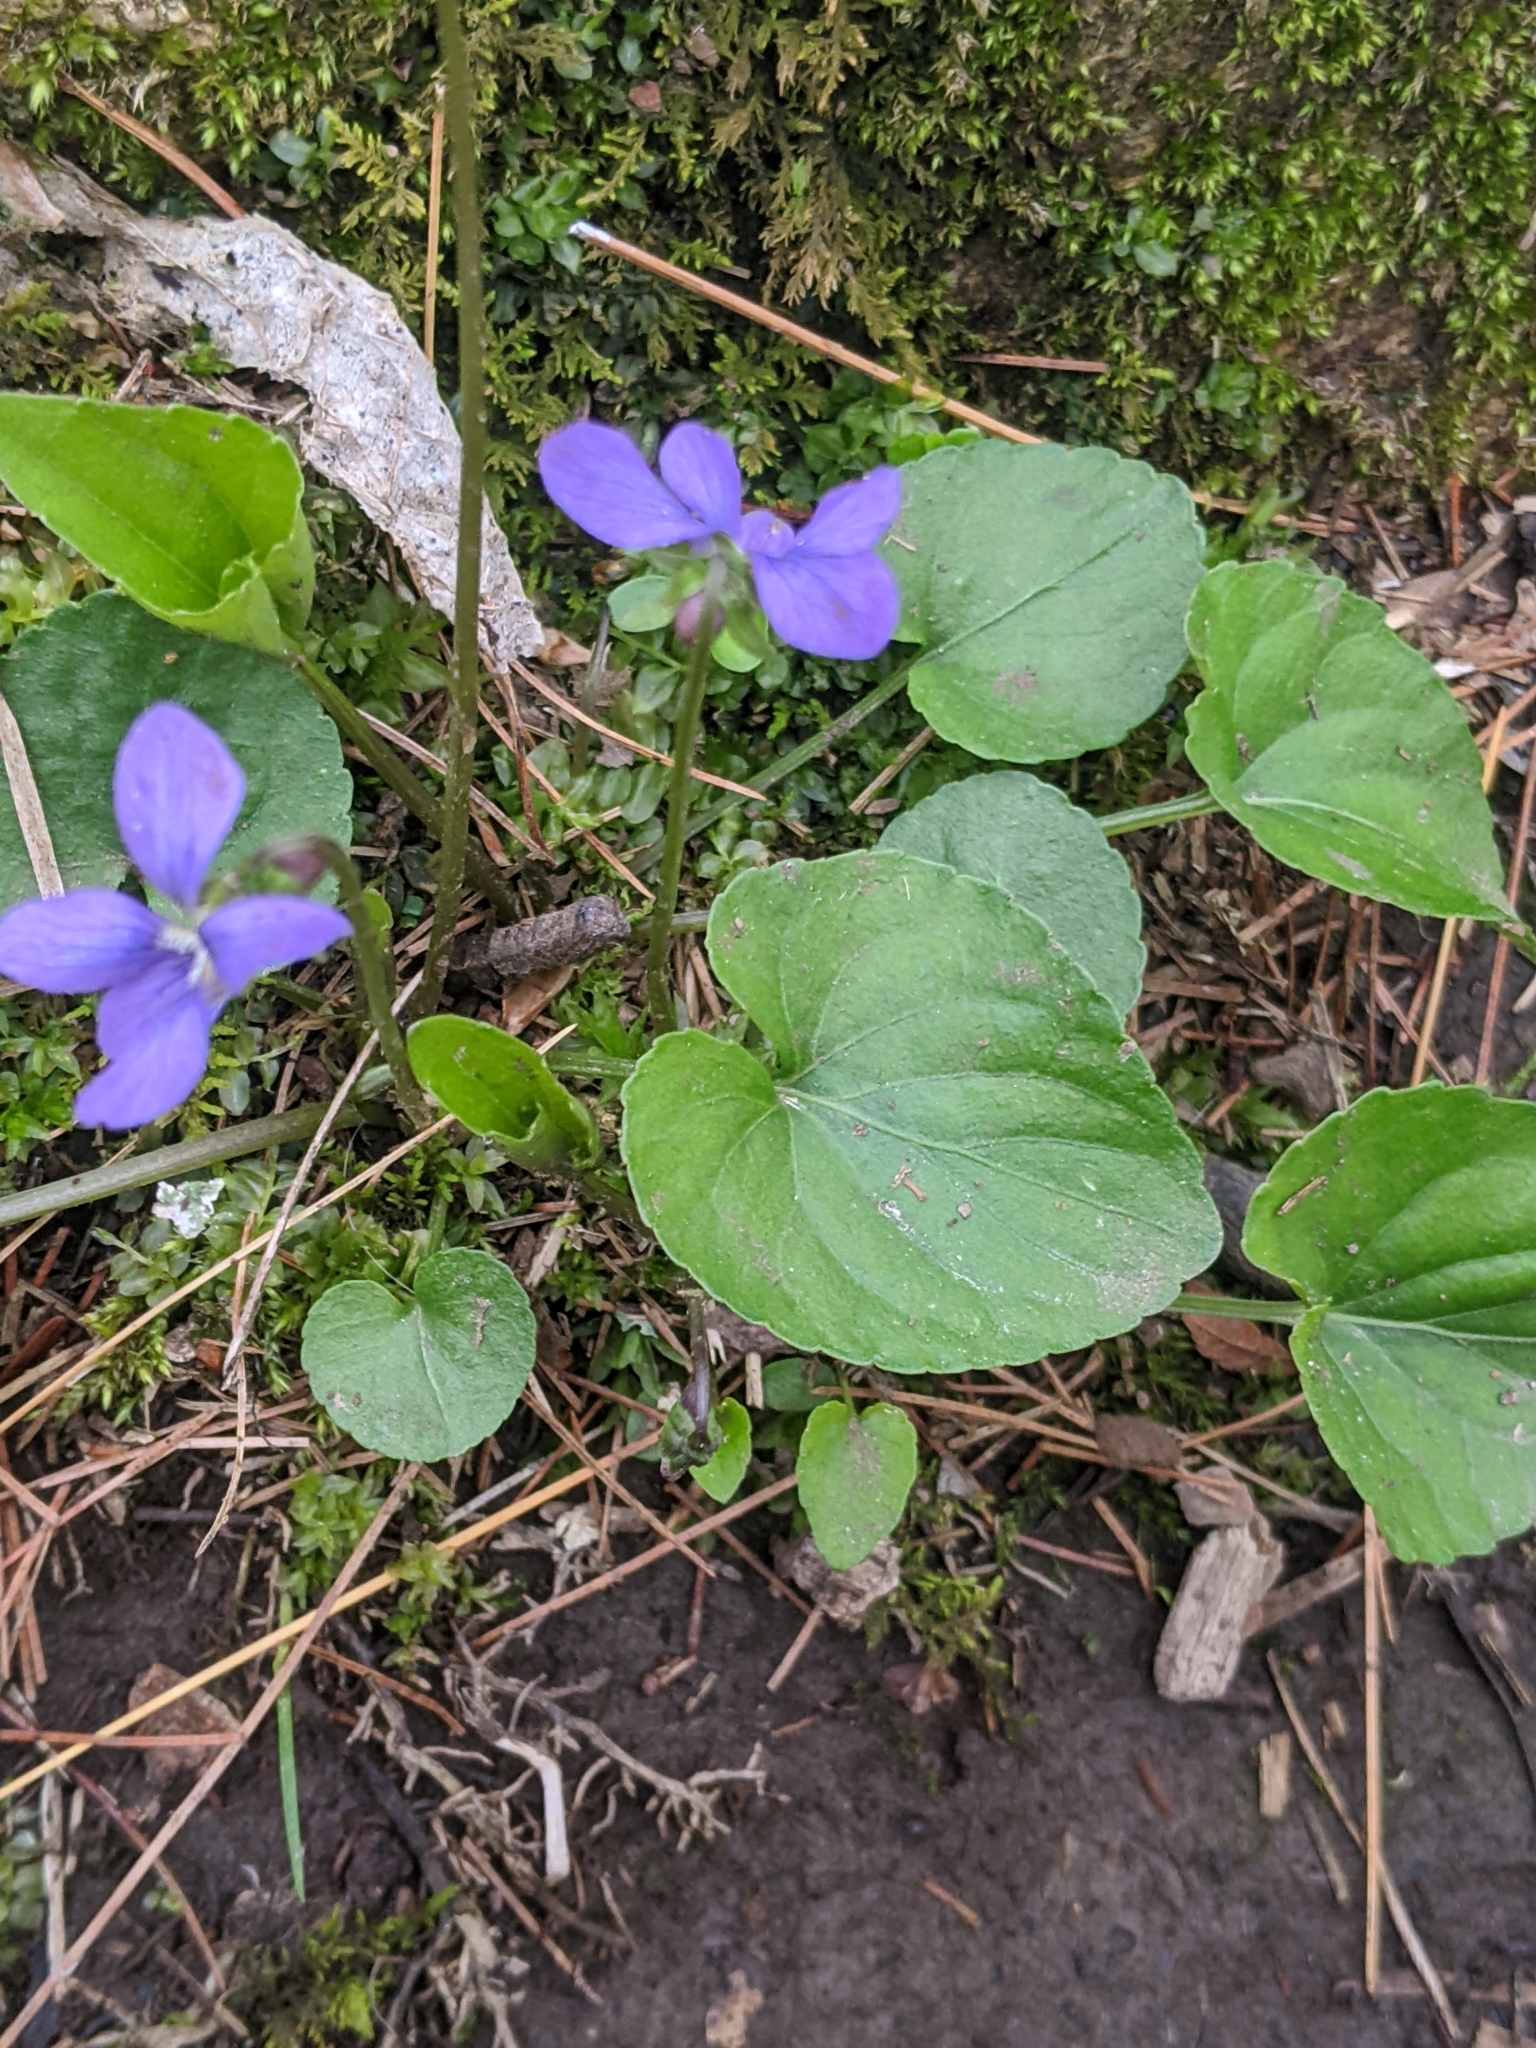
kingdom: Plantae
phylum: Tracheophyta
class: Magnoliopsida
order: Malpighiales
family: Violaceae
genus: Viola
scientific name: Viola cucullata
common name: Marsh blue violet
